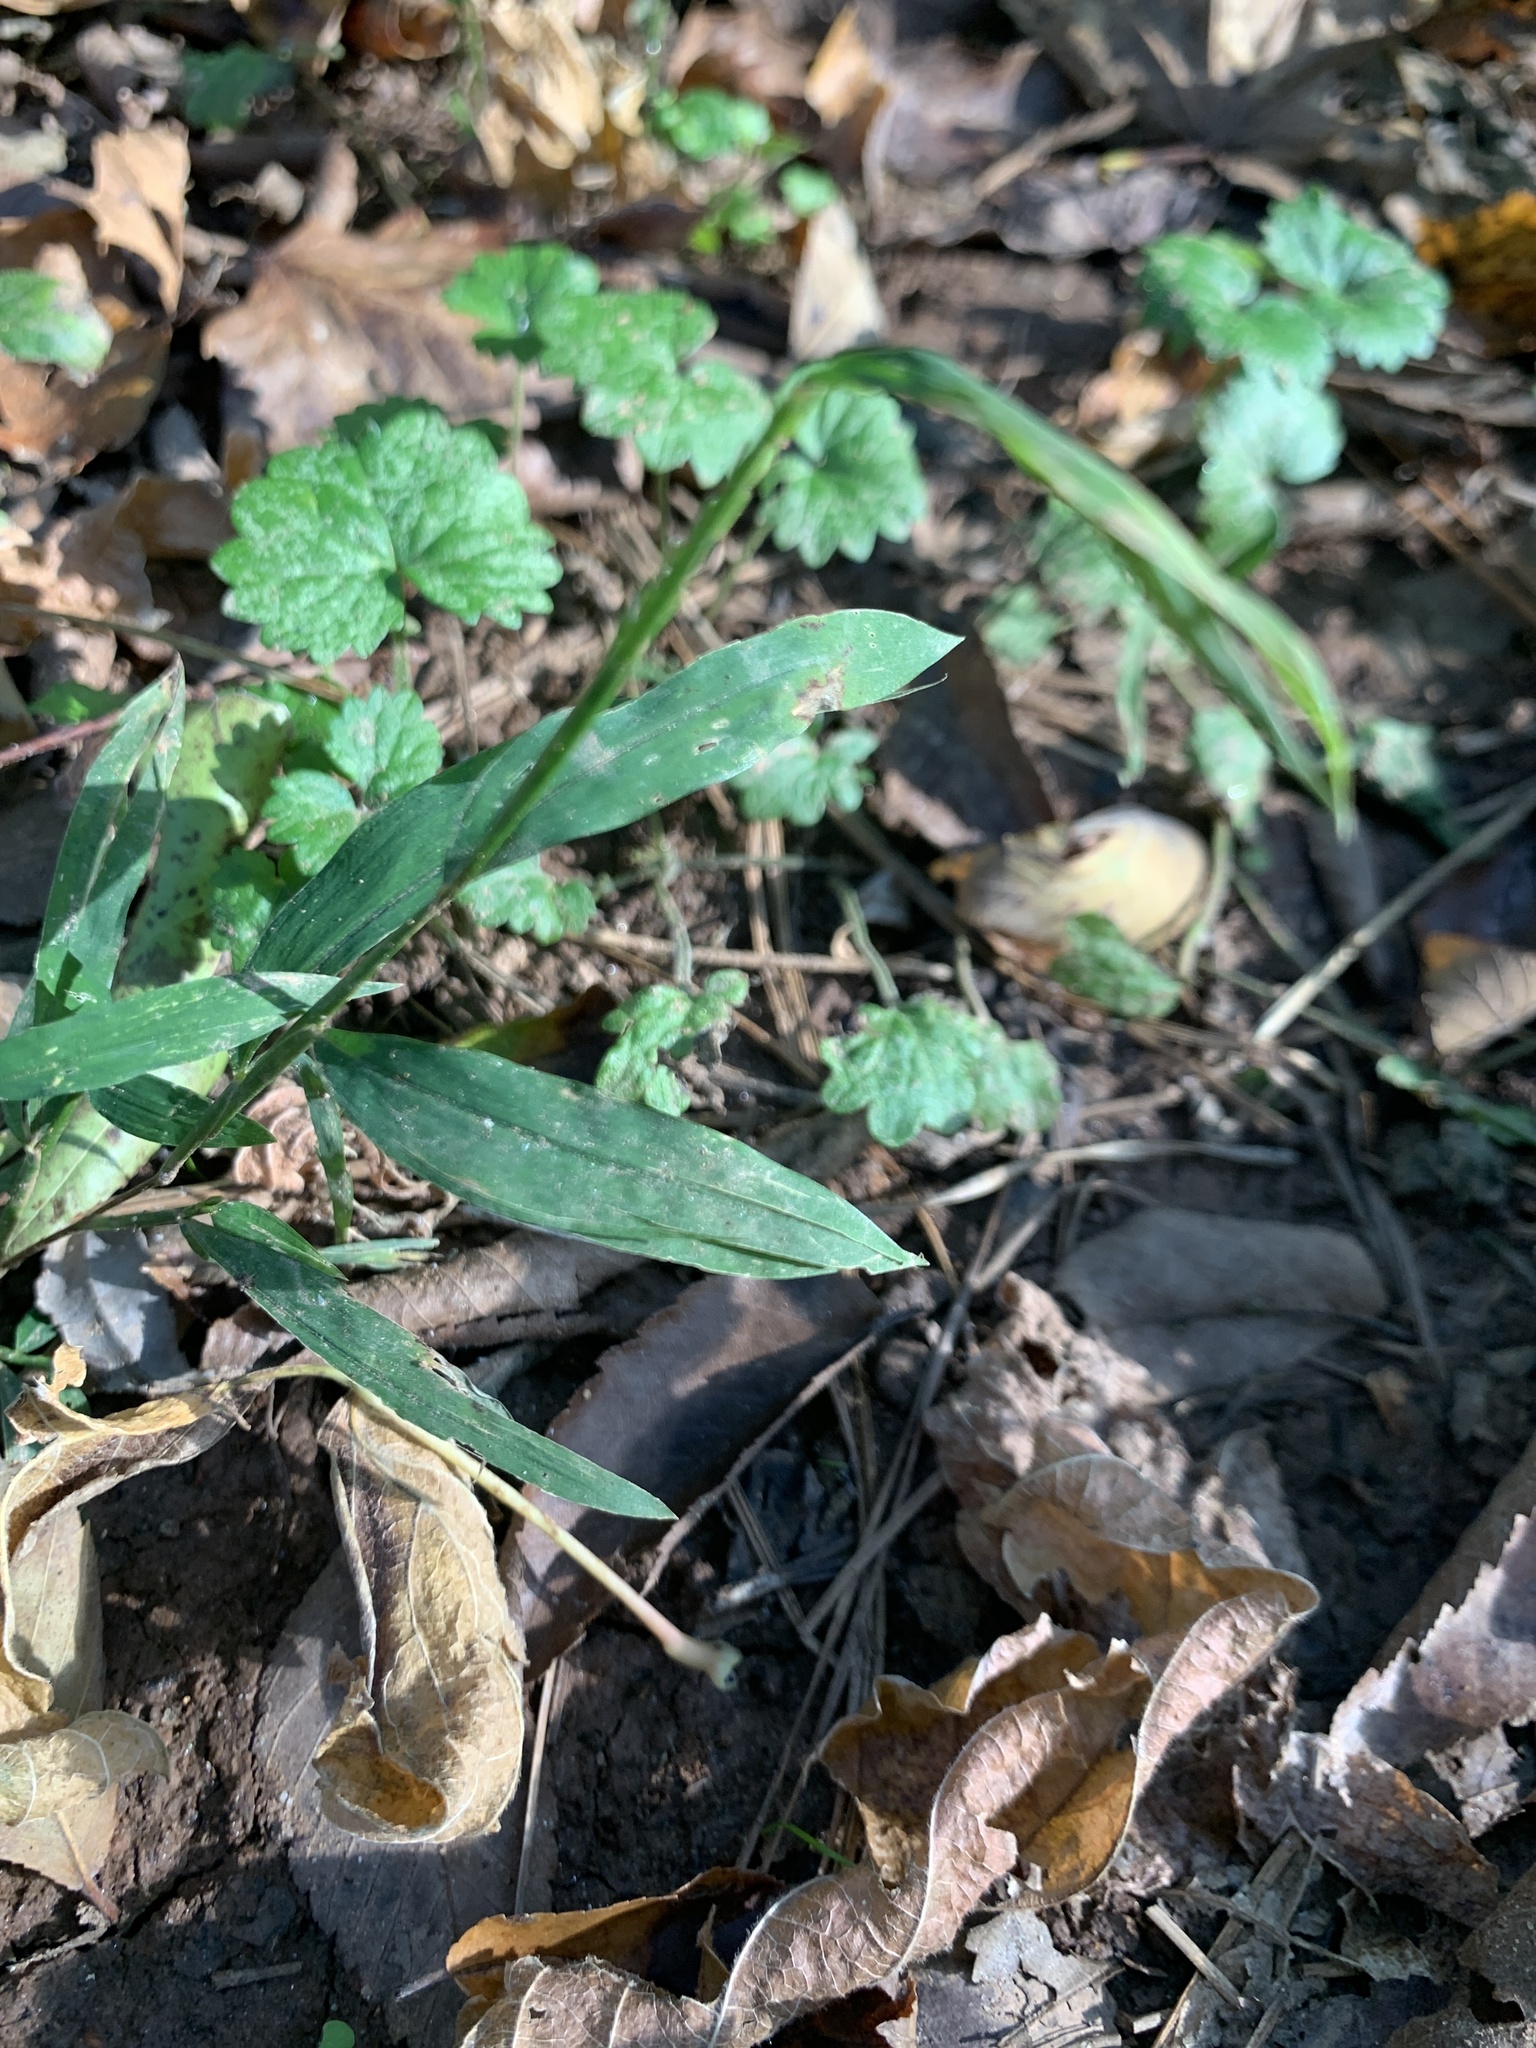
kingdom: Plantae
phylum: Tracheophyta
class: Liliopsida
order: Poales
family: Poaceae
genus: Microstegium
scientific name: Microstegium vimineum
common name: Japanese stiltgrass
